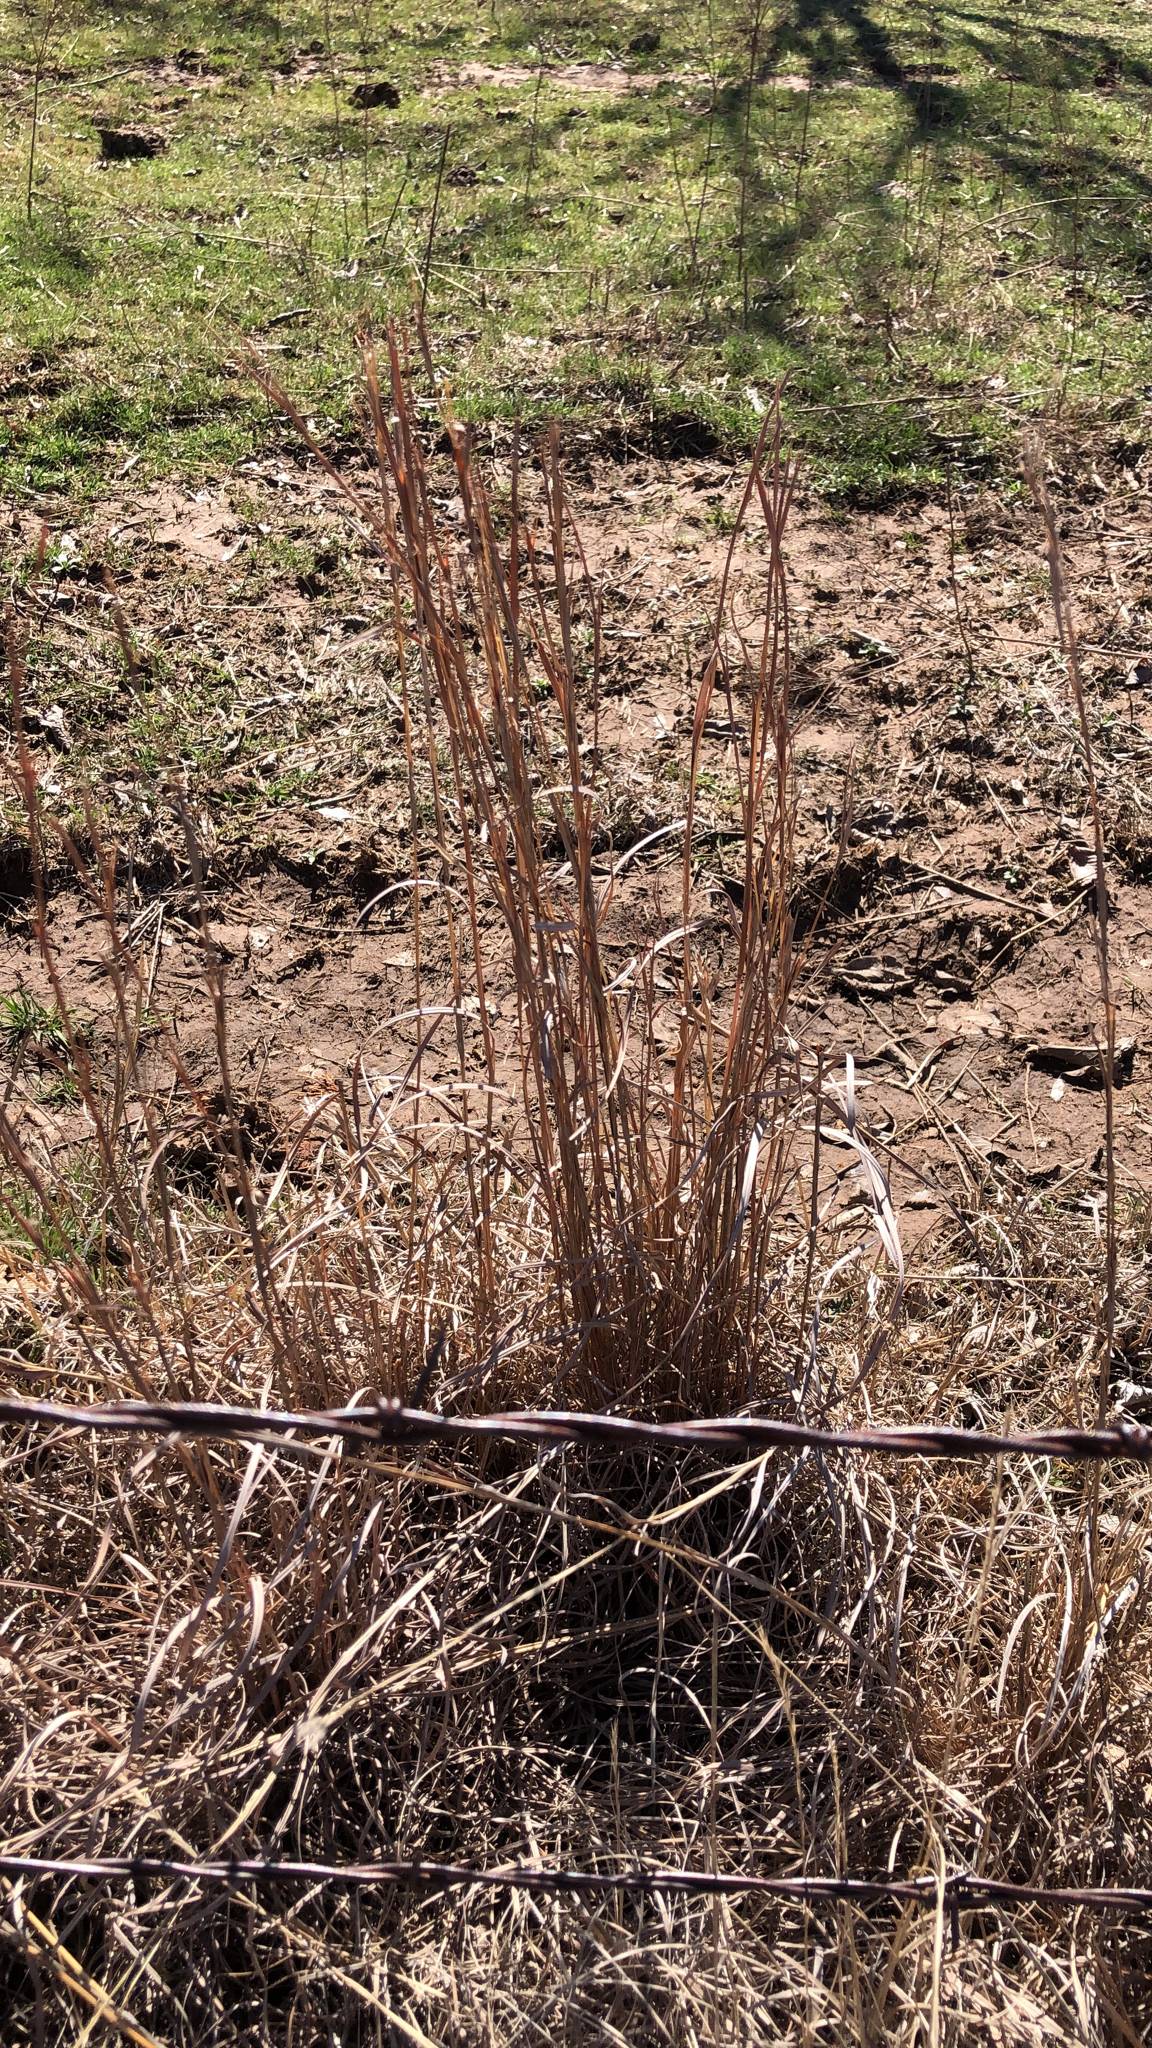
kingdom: Plantae
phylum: Tracheophyta
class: Liliopsida
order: Poales
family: Poaceae
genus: Schizachyrium
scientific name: Schizachyrium scoparium
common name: Little bluestem
